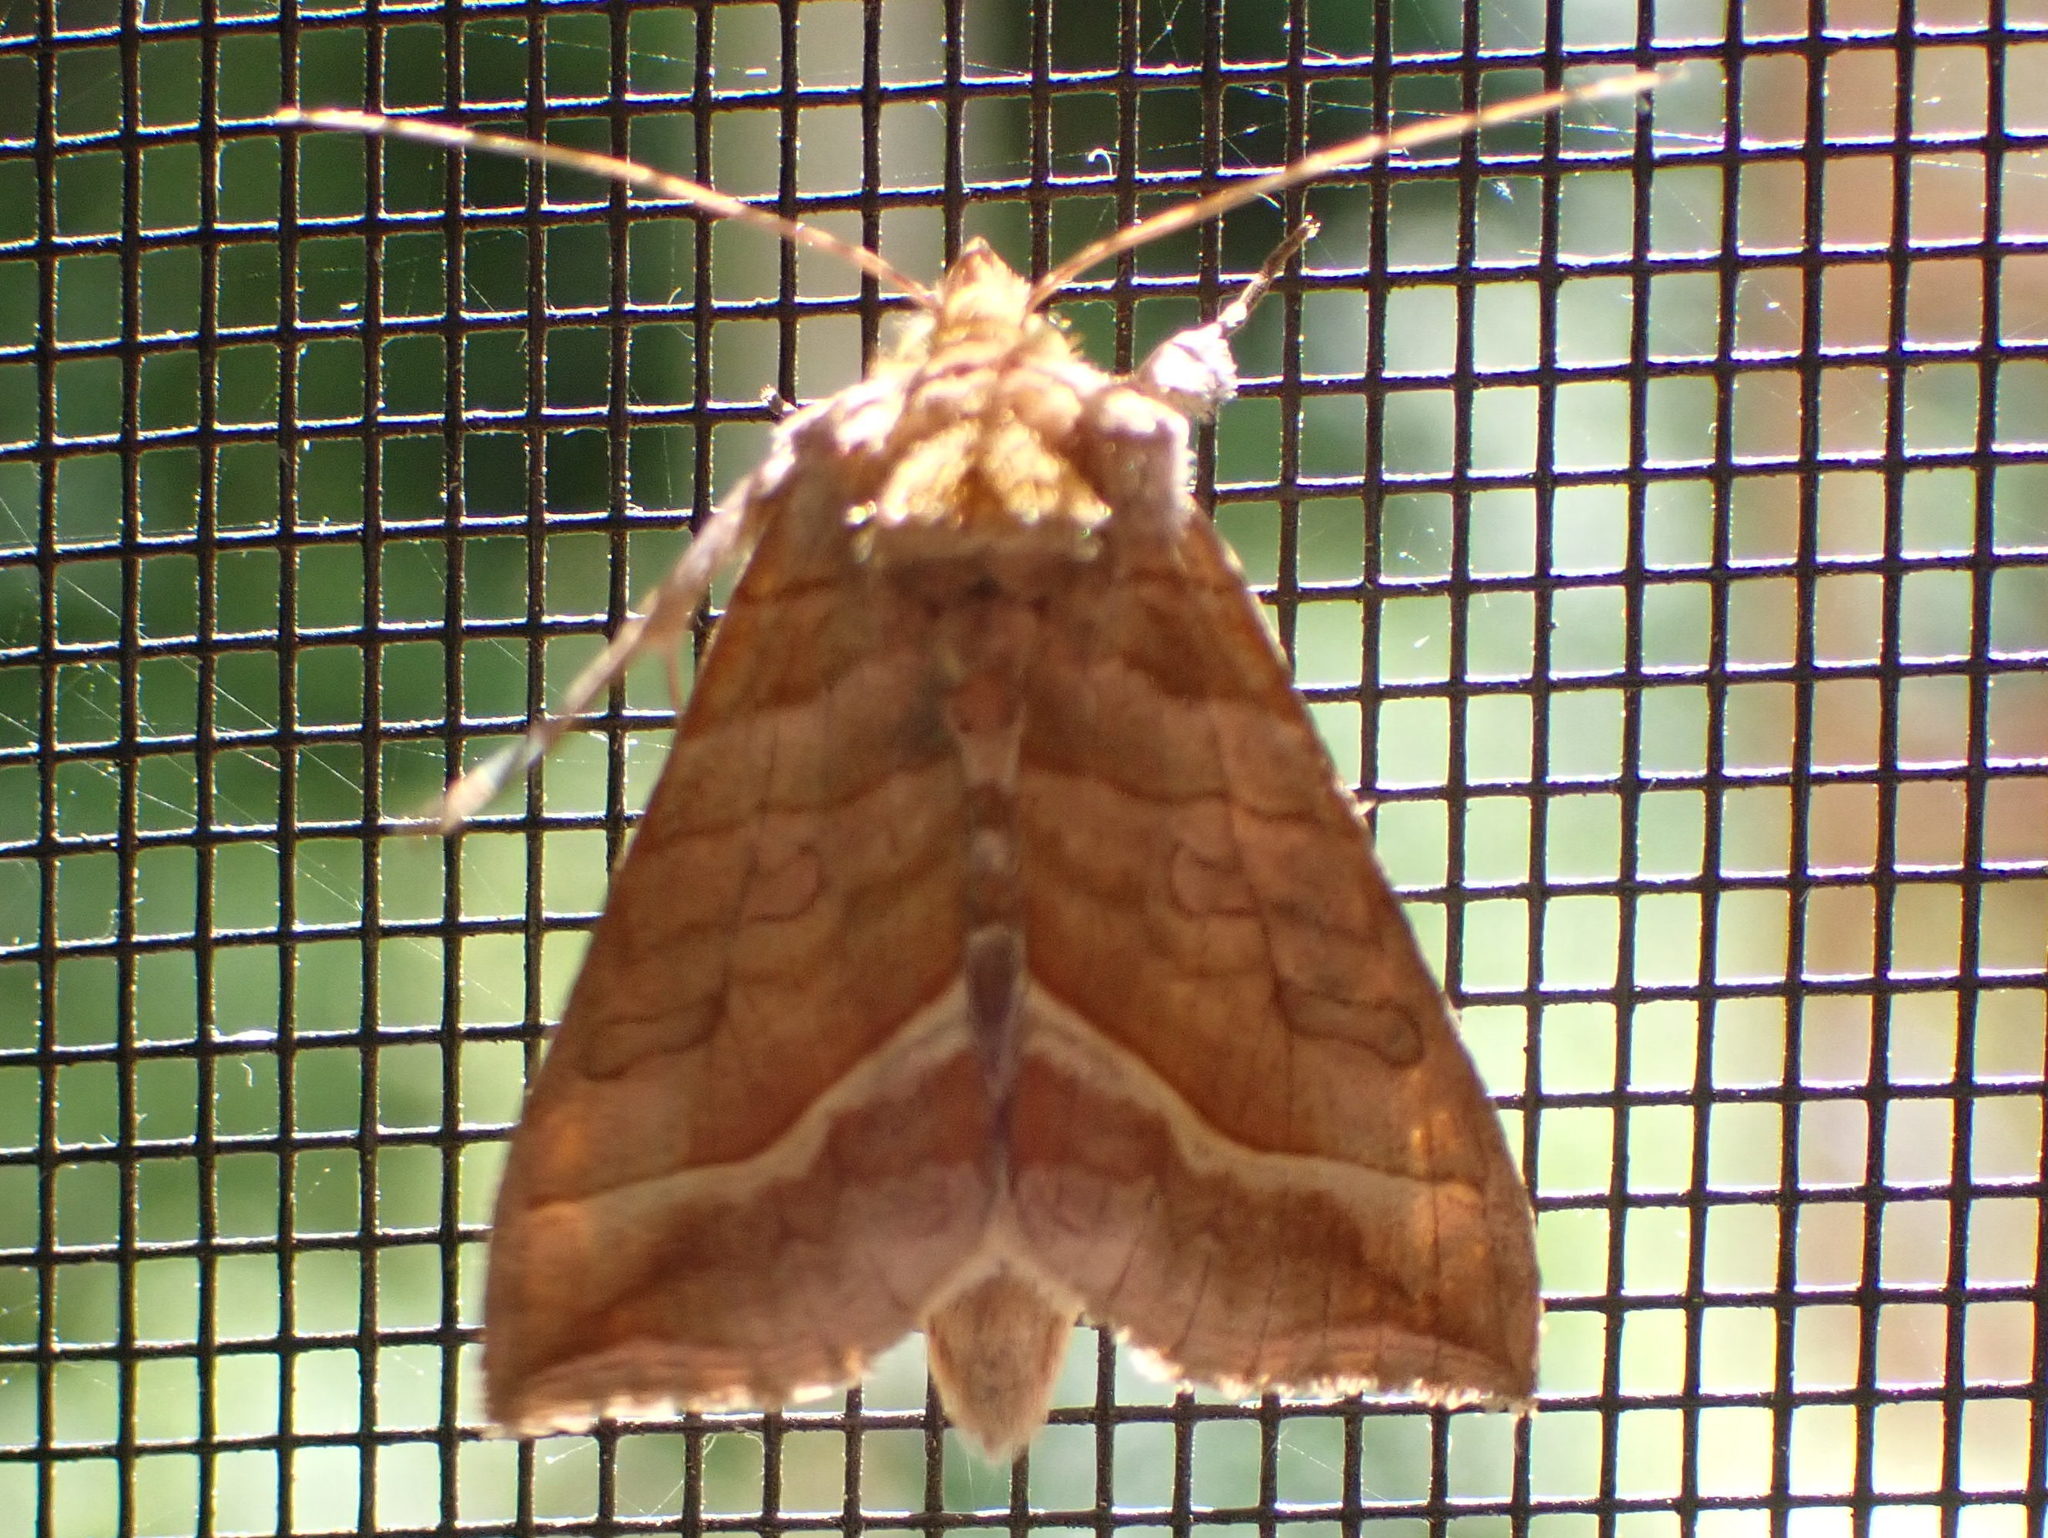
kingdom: Animalia
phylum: Arthropoda
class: Insecta
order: Lepidoptera
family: Noctuidae
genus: Diachrysia
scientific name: Diachrysia aereoides
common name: Dark-spotted looper moth
